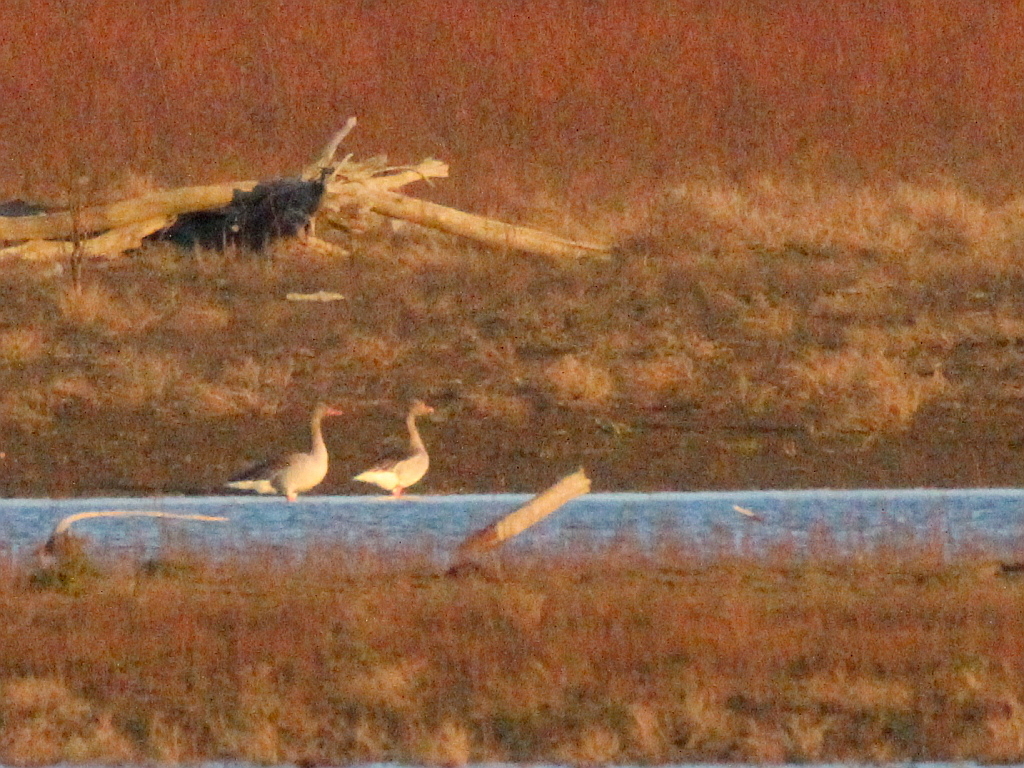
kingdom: Animalia
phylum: Chordata
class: Aves
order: Anseriformes
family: Anatidae
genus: Anser
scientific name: Anser anser
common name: Greylag goose
